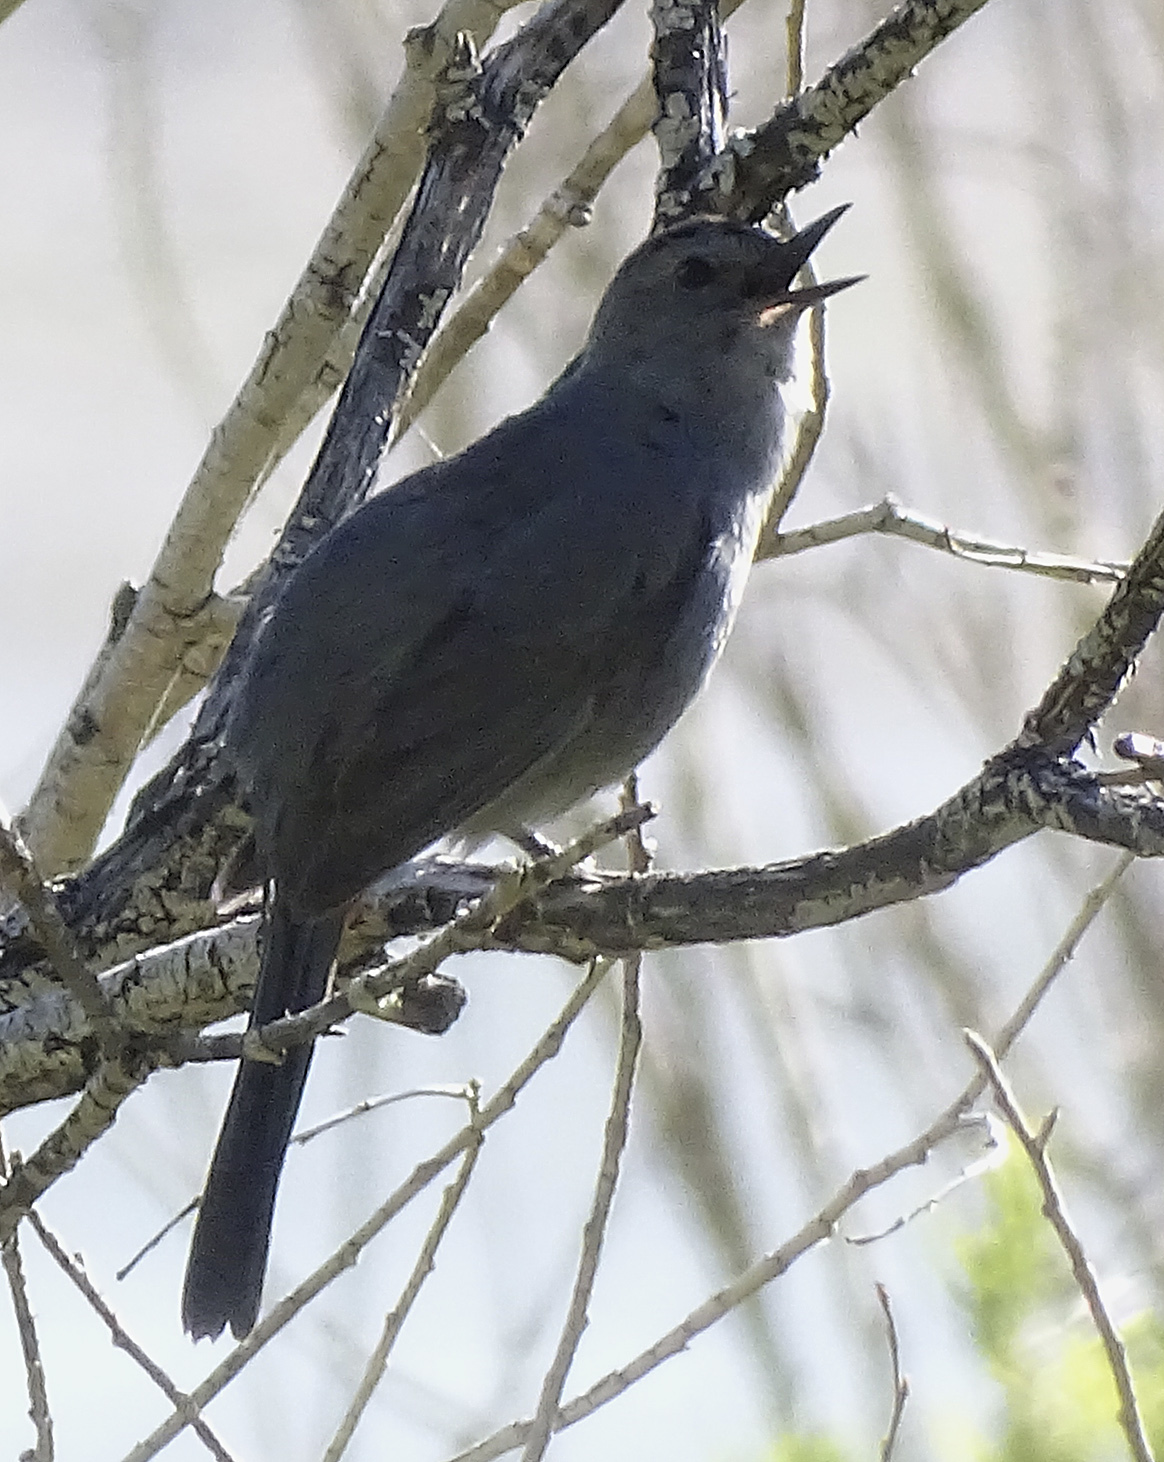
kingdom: Animalia
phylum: Chordata
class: Aves
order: Passeriformes
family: Mimidae
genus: Dumetella
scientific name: Dumetella carolinensis
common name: Gray catbird
